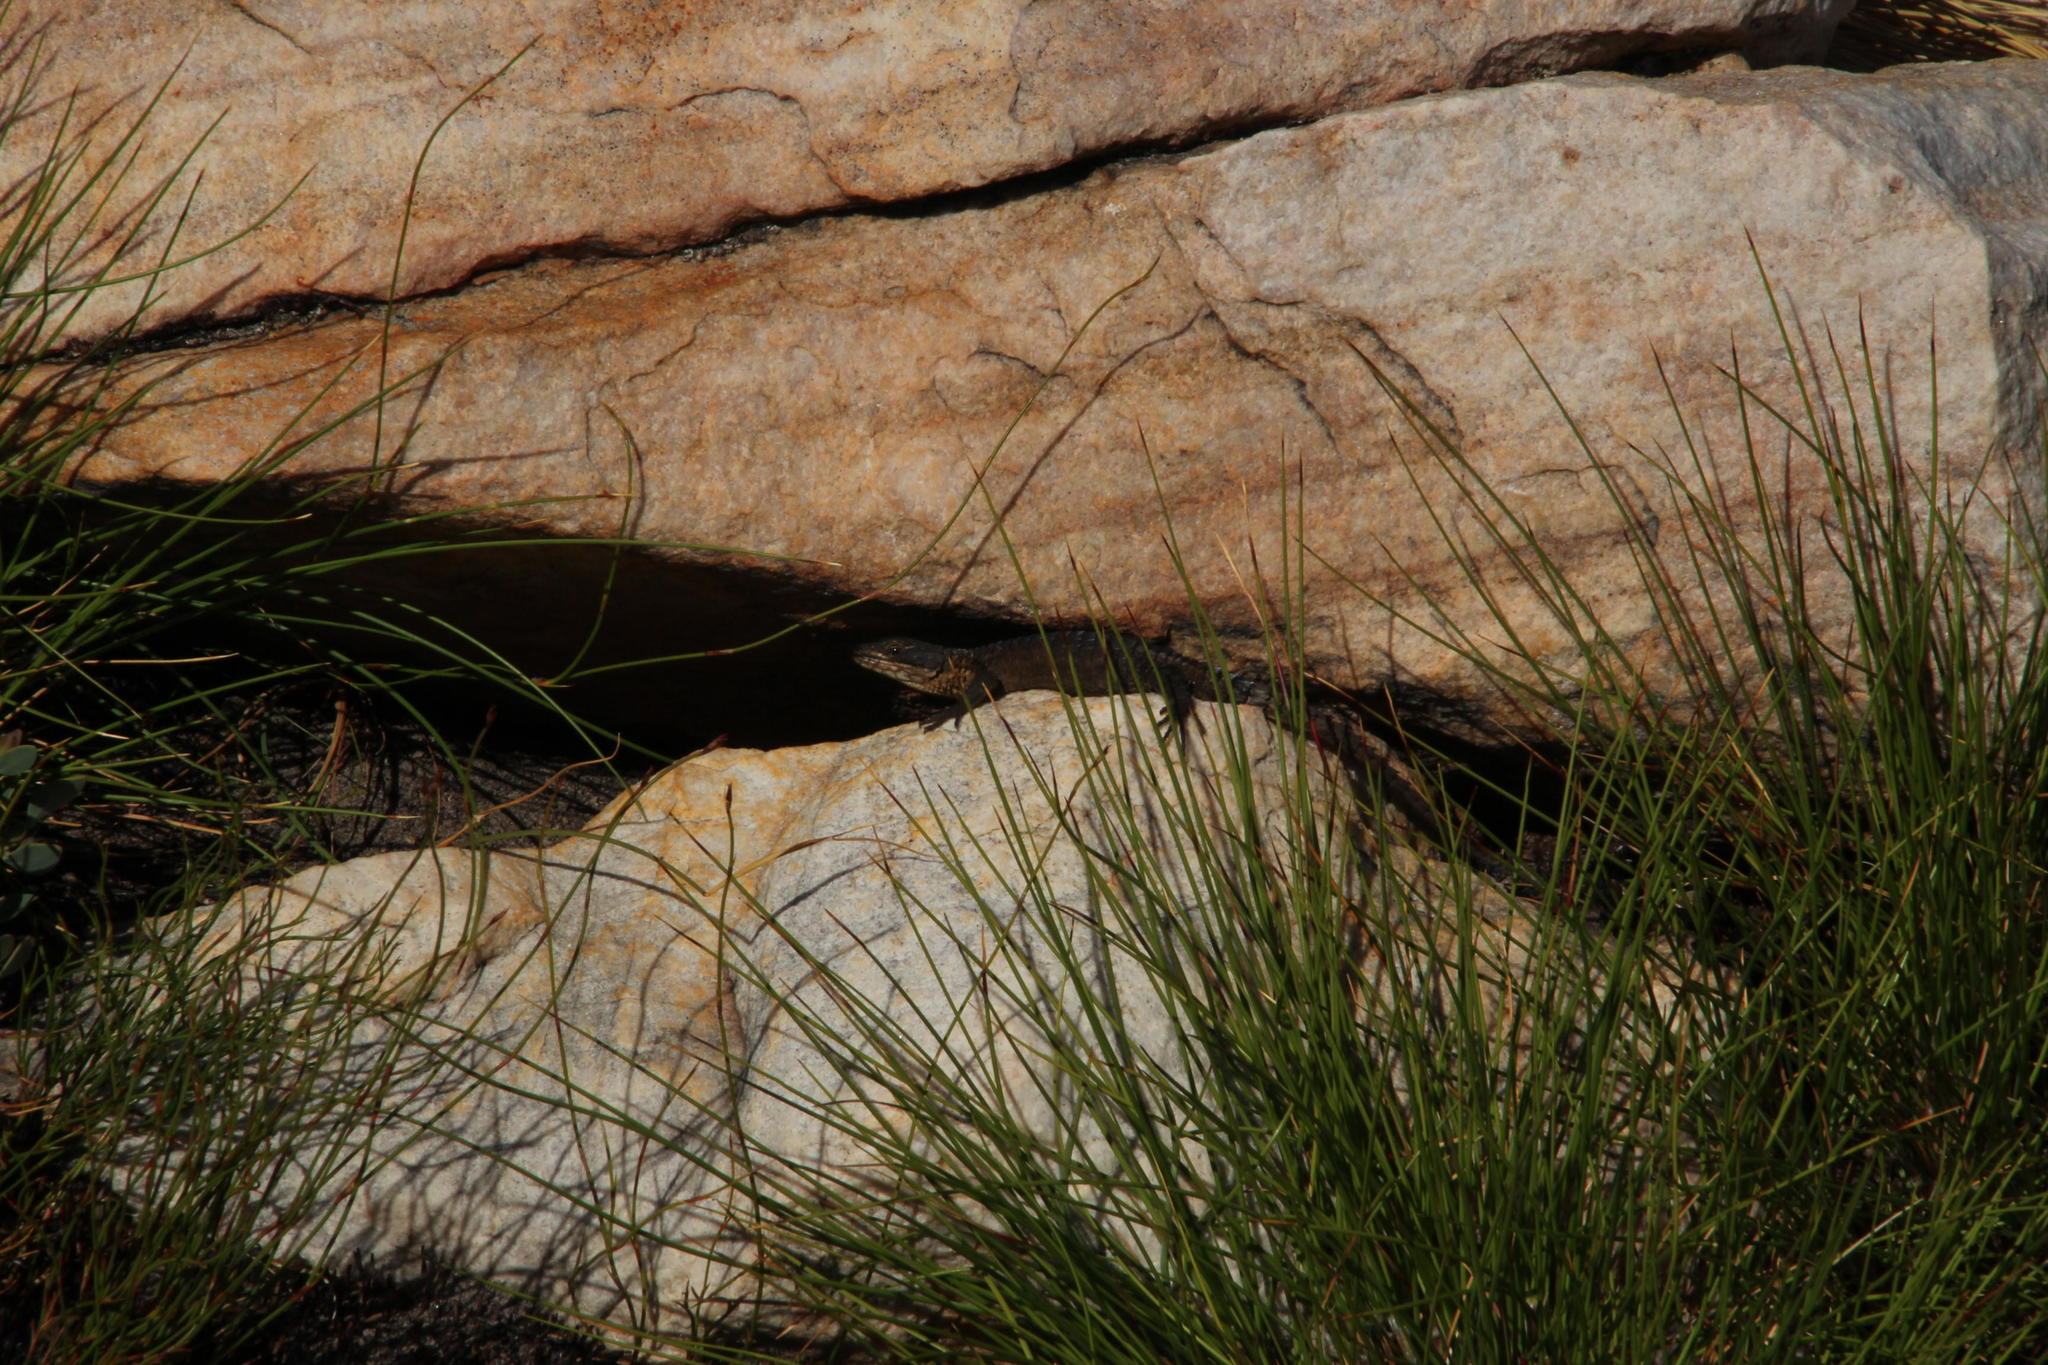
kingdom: Animalia
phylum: Chordata
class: Squamata
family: Cordylidae
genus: Cordylus
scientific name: Cordylus cordylus
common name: Cape girdled lizard
